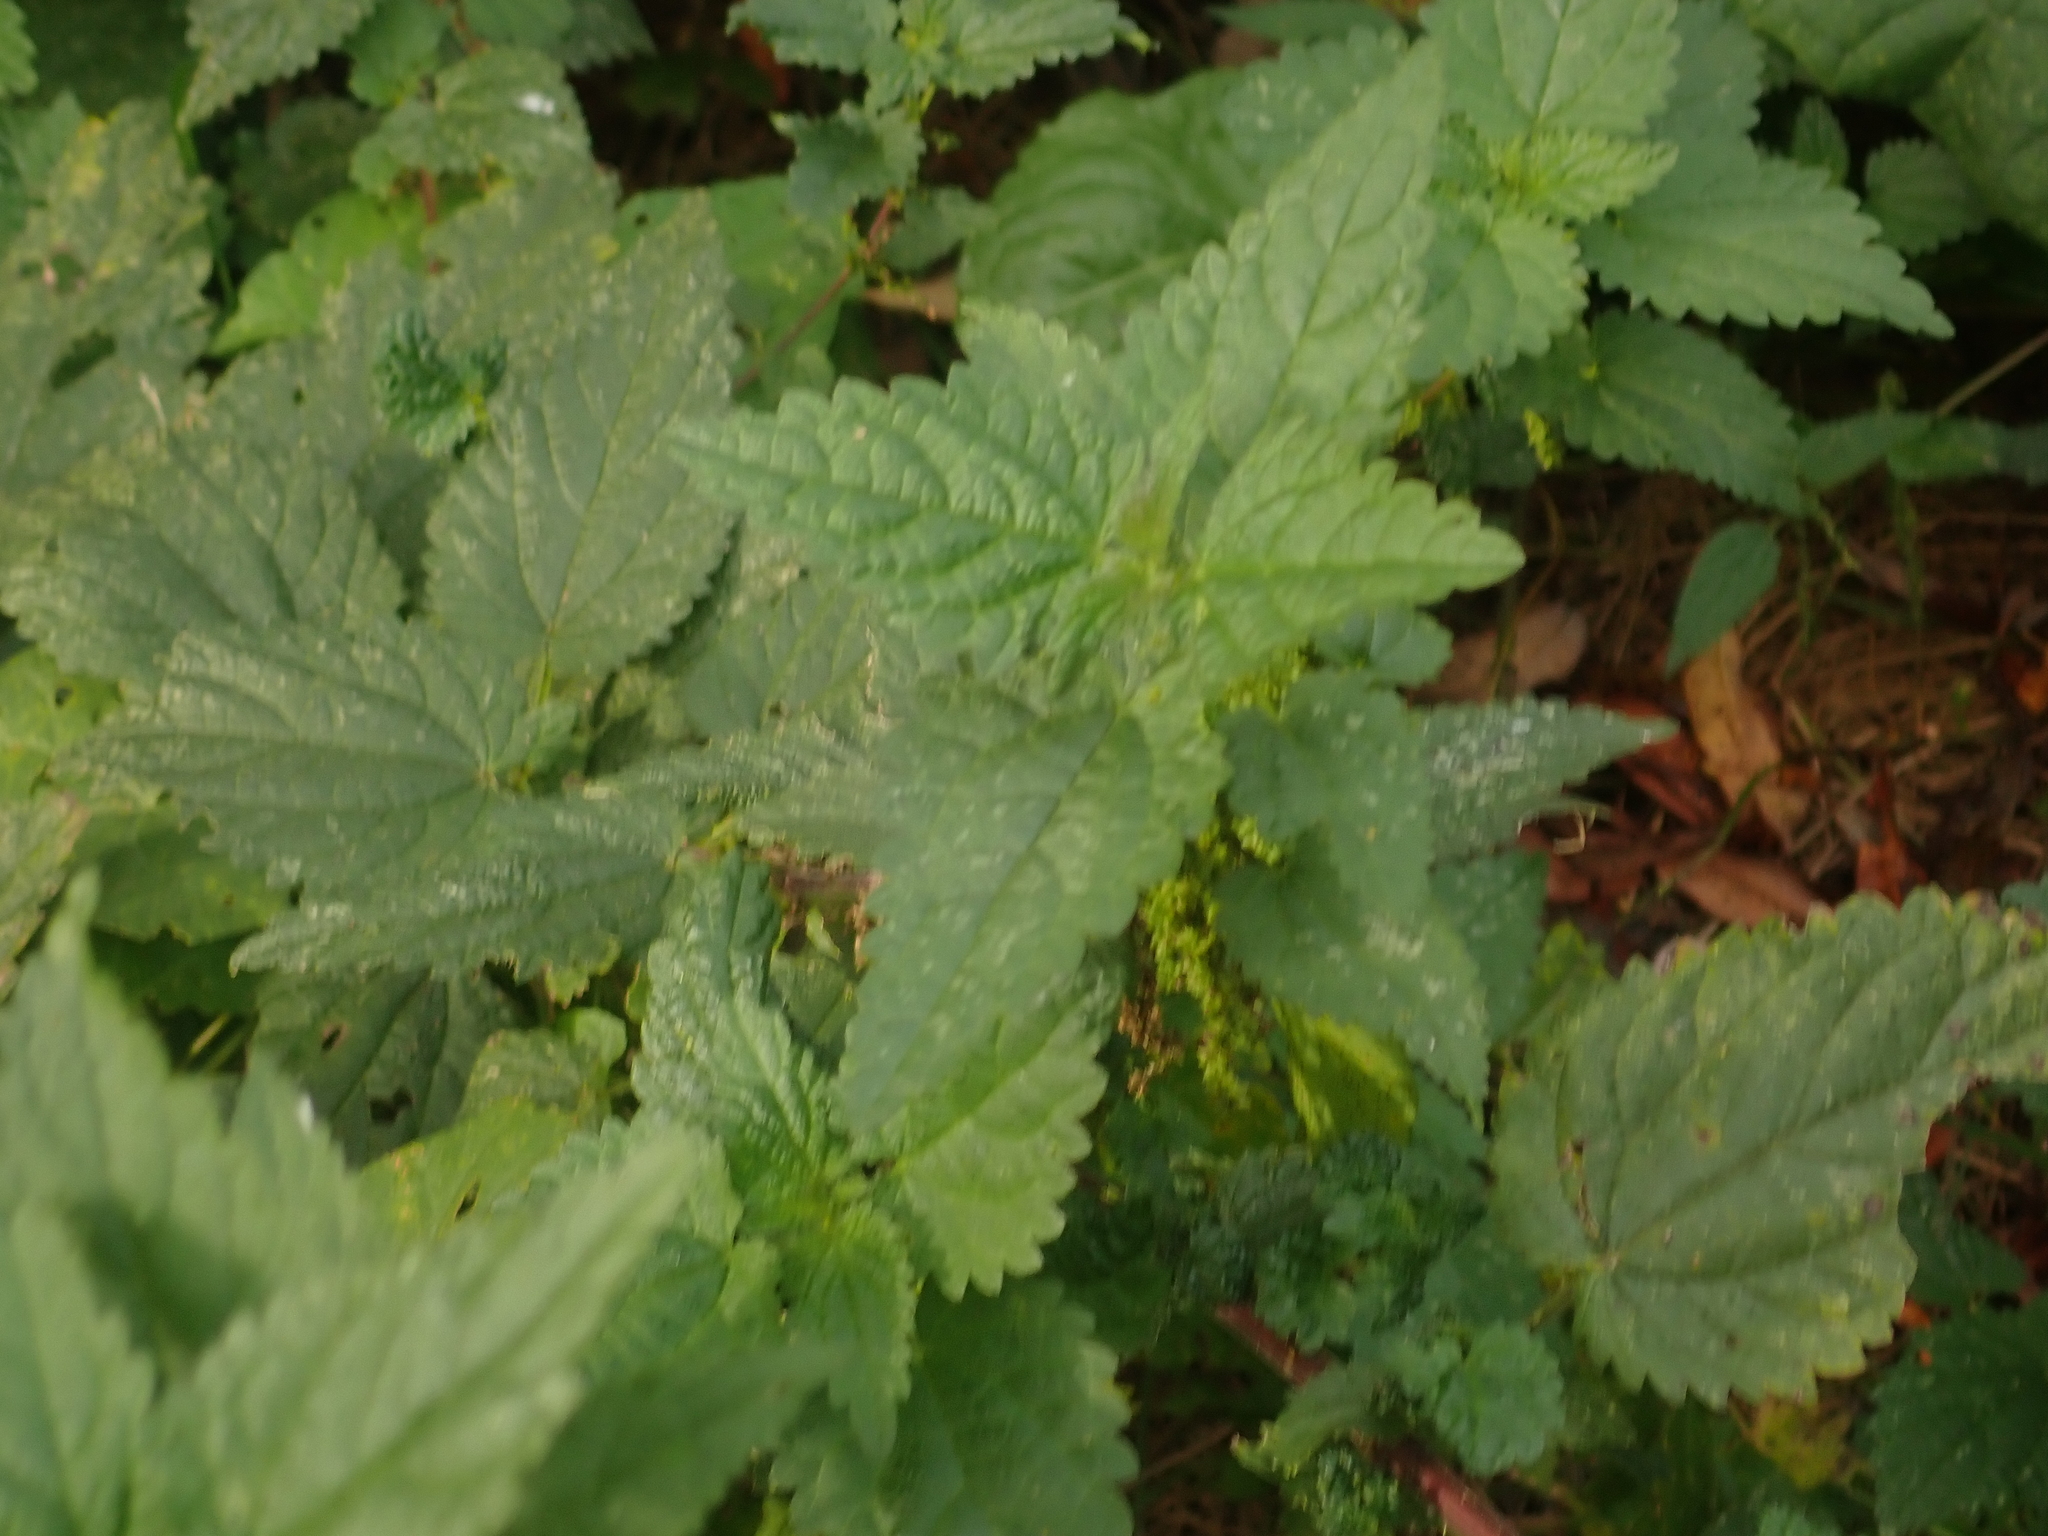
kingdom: Plantae
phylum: Tracheophyta
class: Magnoliopsida
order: Rosales
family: Urticaceae
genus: Urtica
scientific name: Urtica dioica
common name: Common nettle
